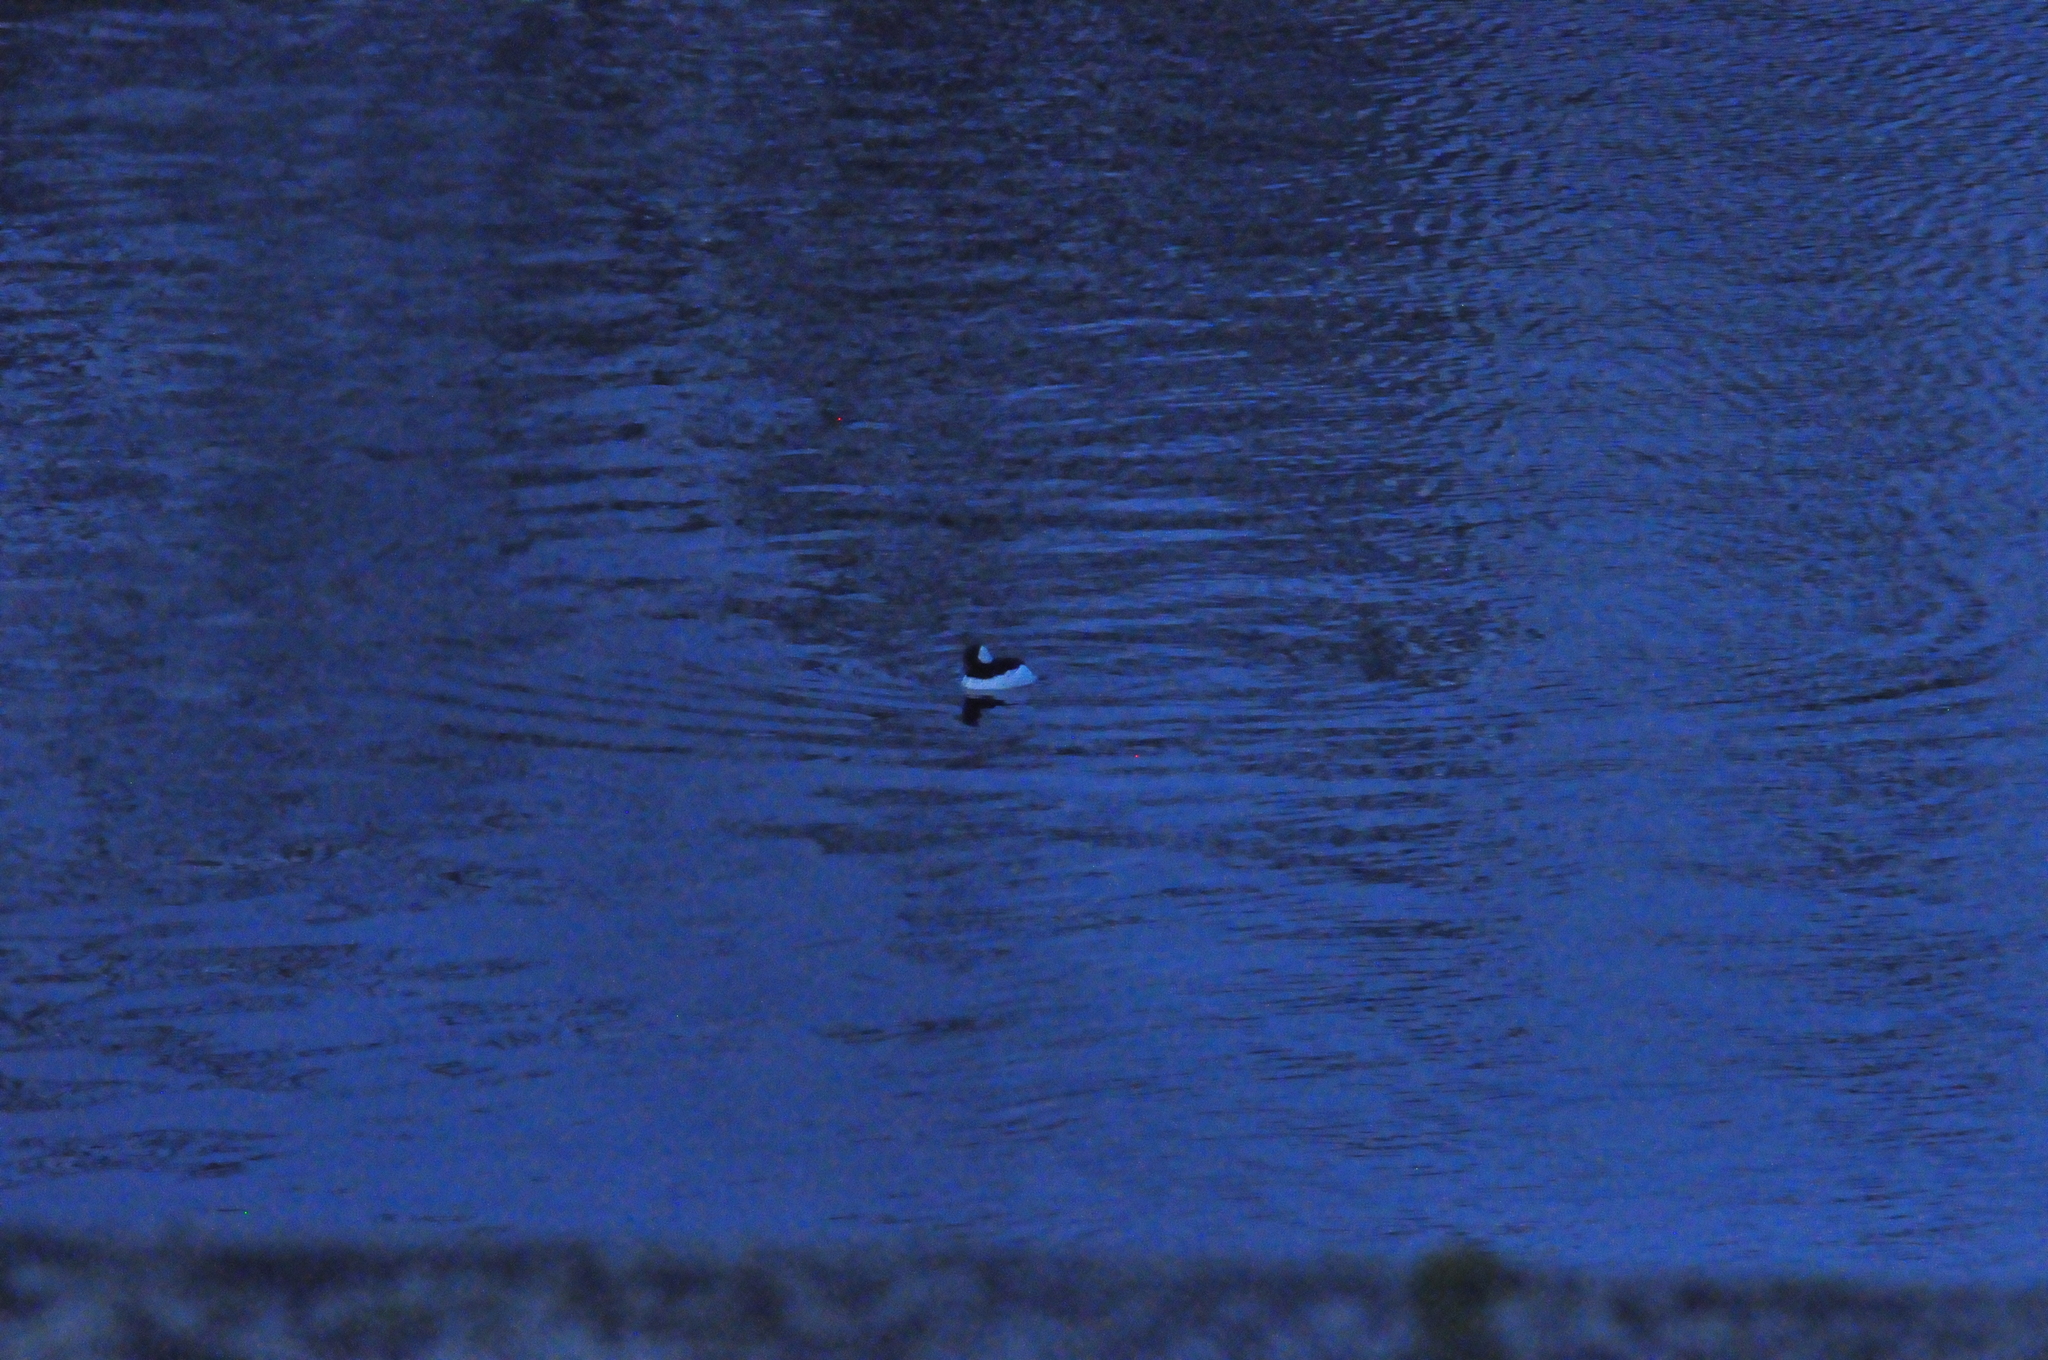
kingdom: Animalia
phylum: Chordata
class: Aves
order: Anseriformes
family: Anatidae
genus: Bucephala
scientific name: Bucephala albeola
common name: Bufflehead
